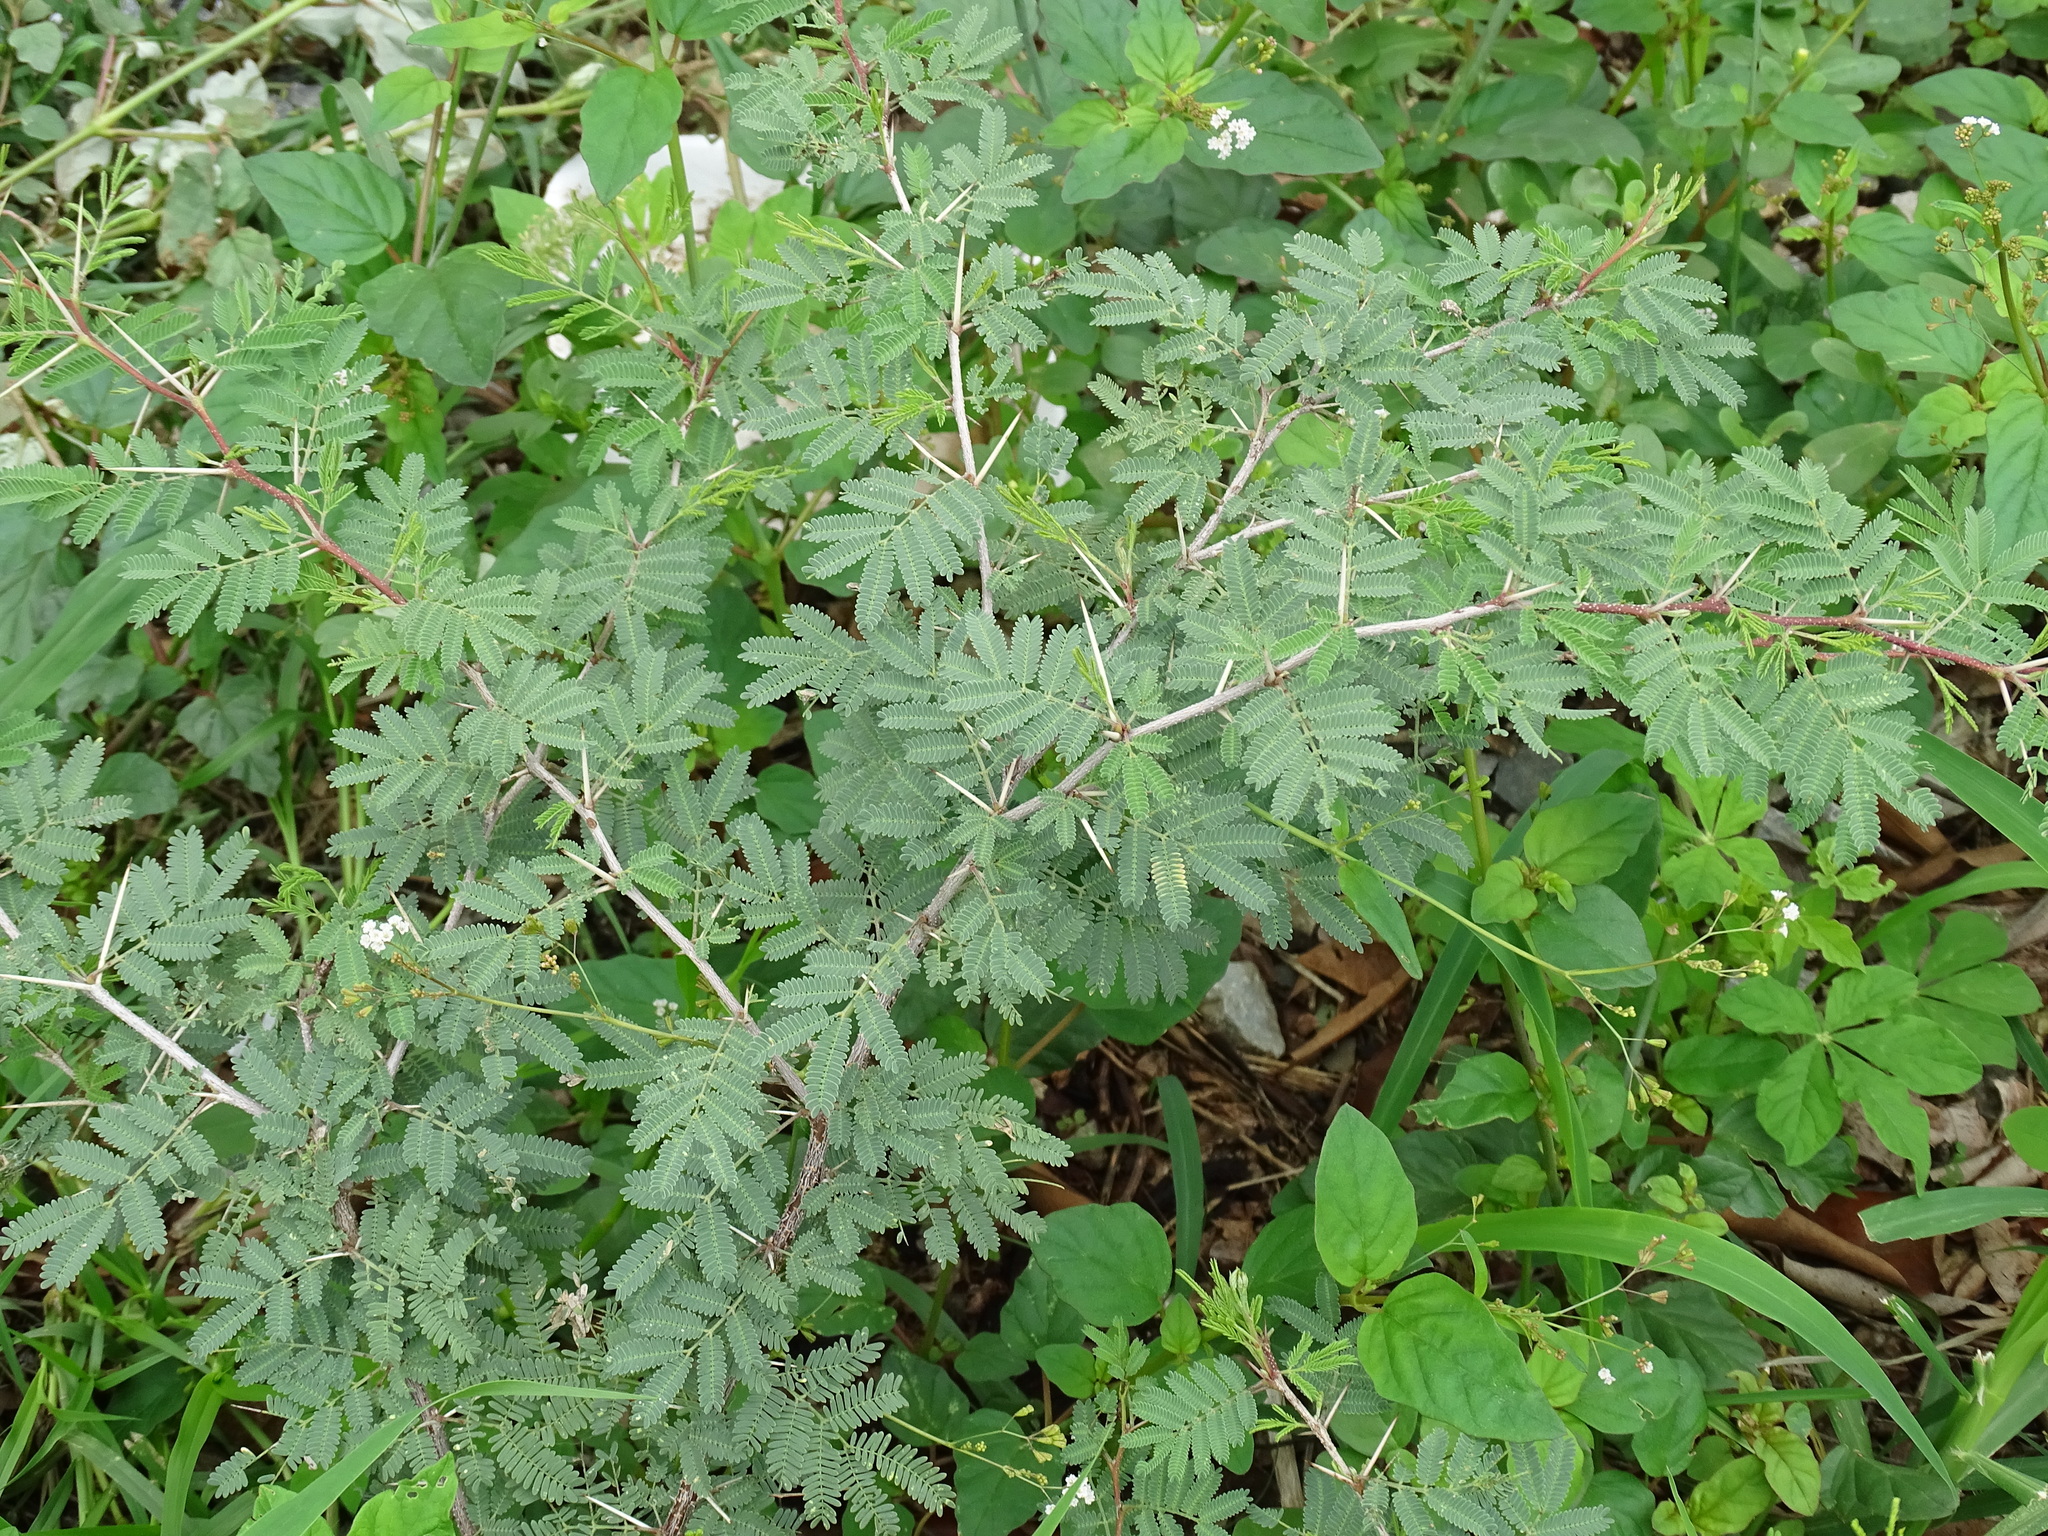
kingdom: Plantae
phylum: Tracheophyta
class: Magnoliopsida
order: Fabales
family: Fabaceae
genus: Vachellia
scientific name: Vachellia farnesiana
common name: Sweet acacia
